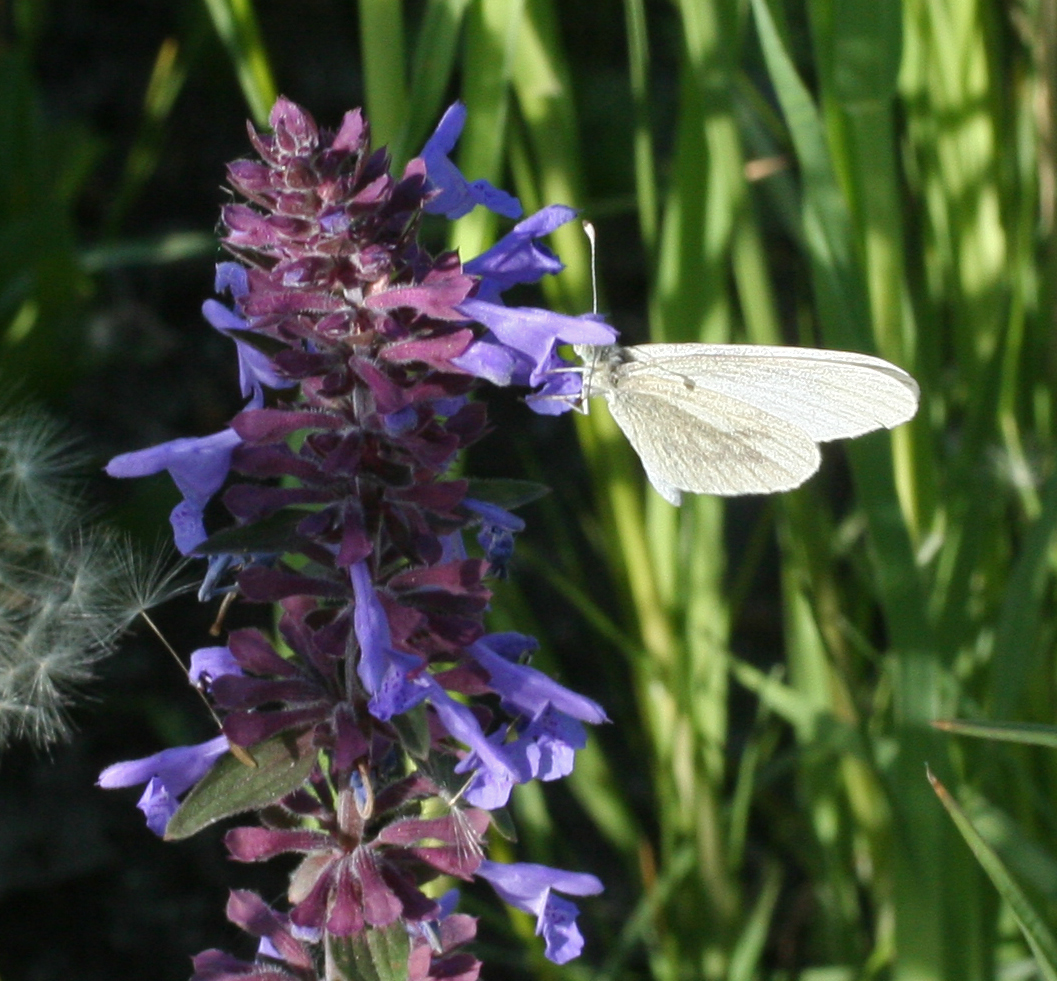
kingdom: Animalia
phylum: Arthropoda
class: Insecta
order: Lepidoptera
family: Pieridae
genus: Leptidea
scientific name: Leptidea amurensis
